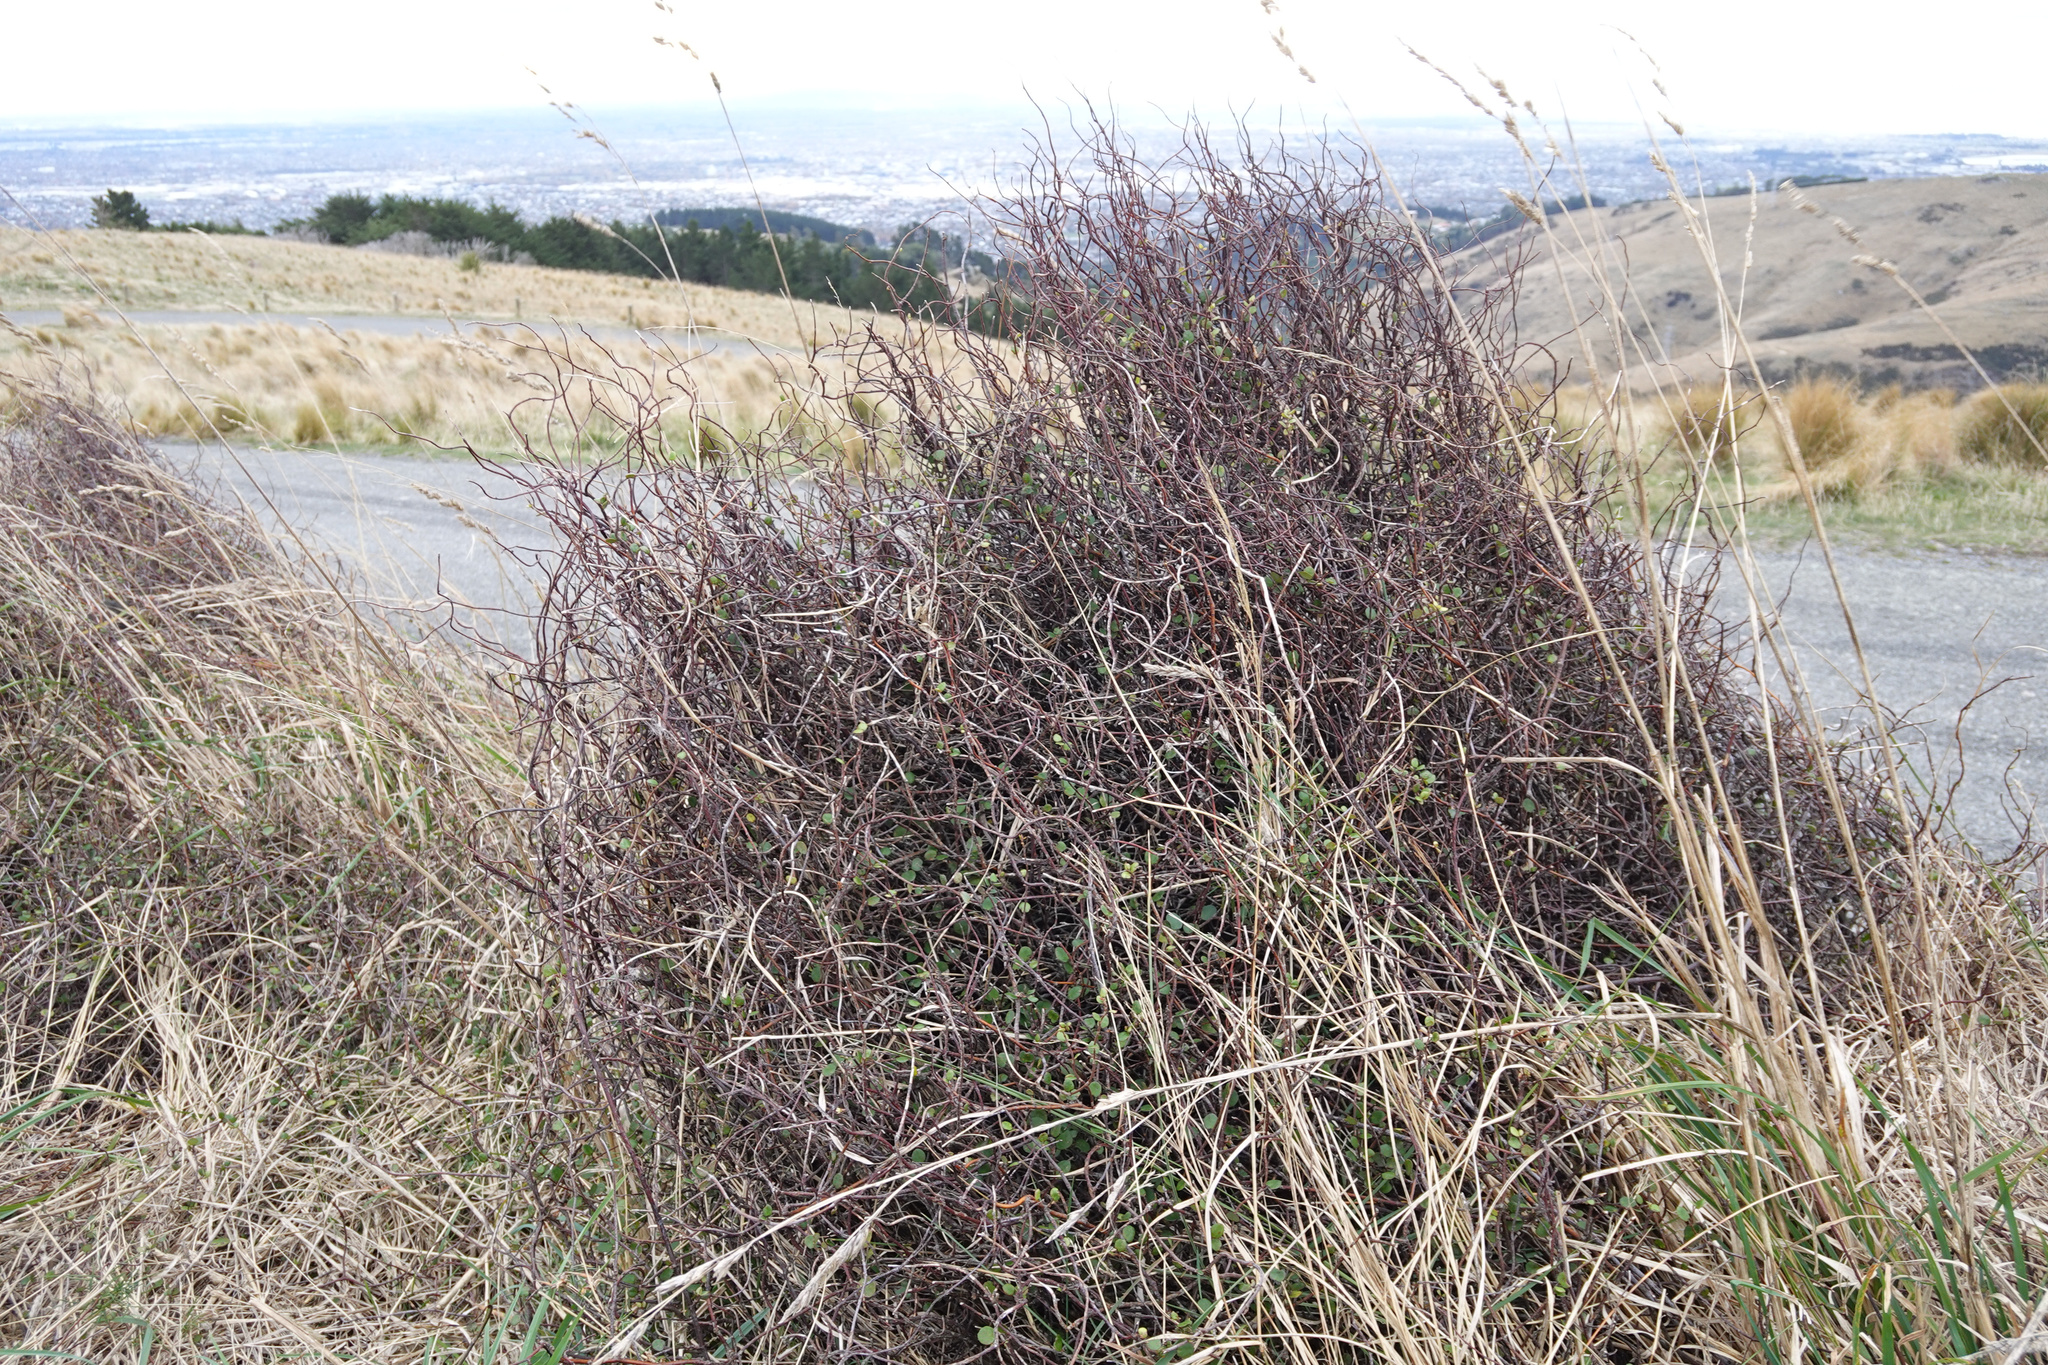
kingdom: Plantae
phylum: Tracheophyta
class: Magnoliopsida
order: Caryophyllales
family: Polygonaceae
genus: Muehlenbeckia
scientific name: Muehlenbeckia complexa
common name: Wireplant
